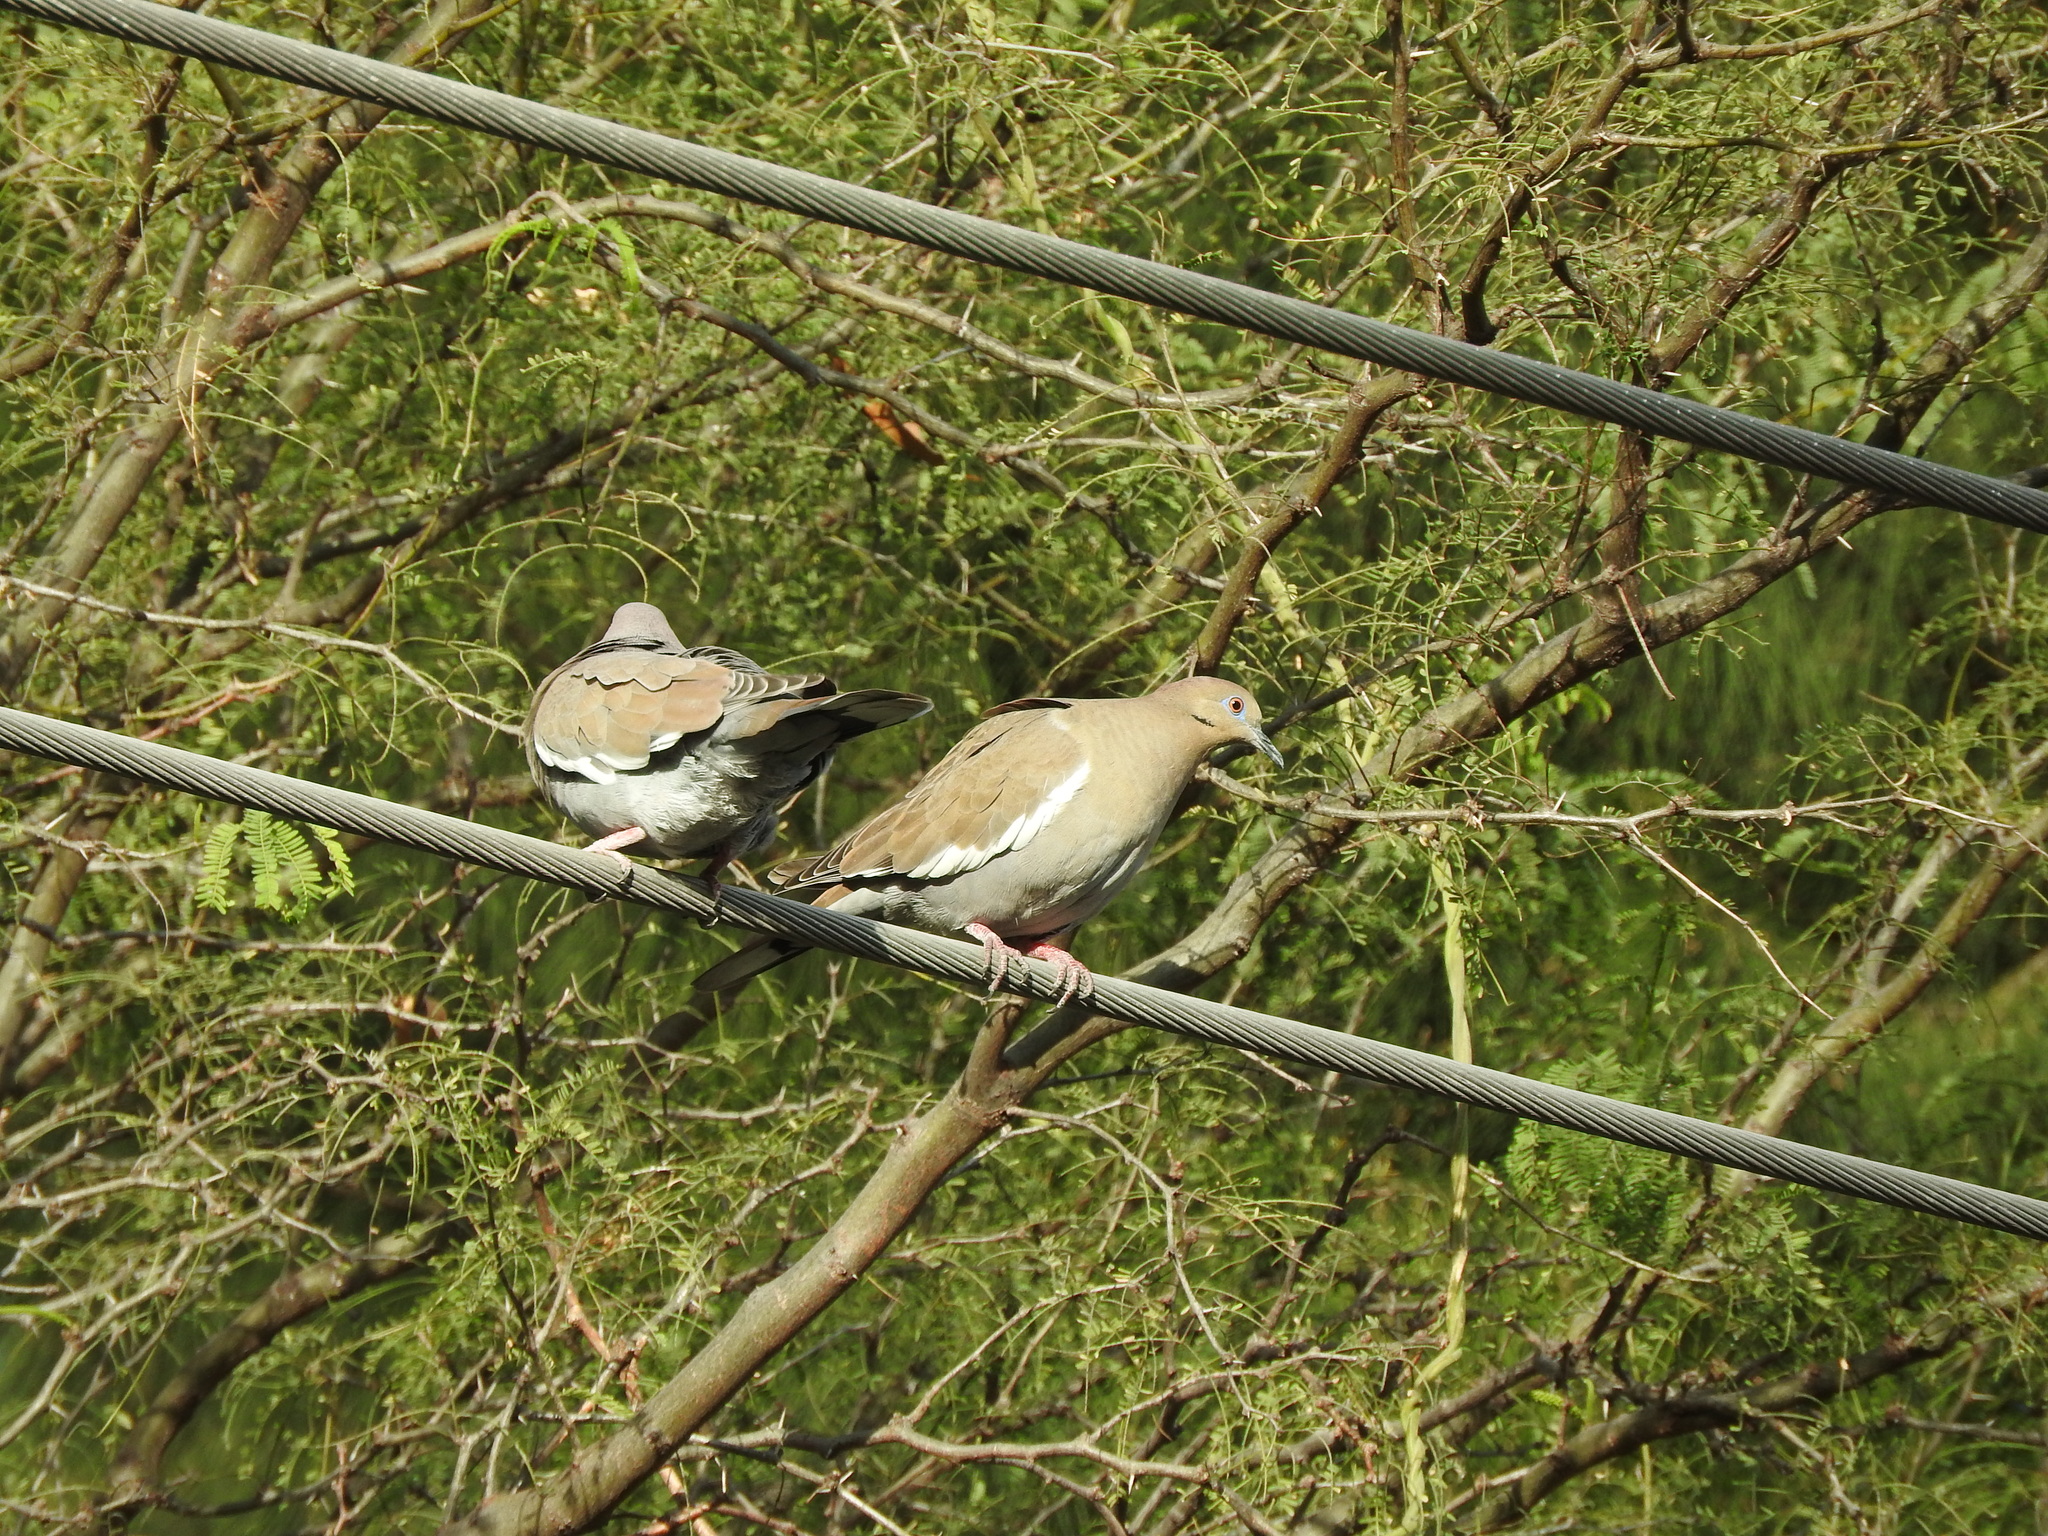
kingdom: Animalia
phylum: Chordata
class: Aves
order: Columbiformes
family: Columbidae
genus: Zenaida
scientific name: Zenaida asiatica
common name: White-winged dove
